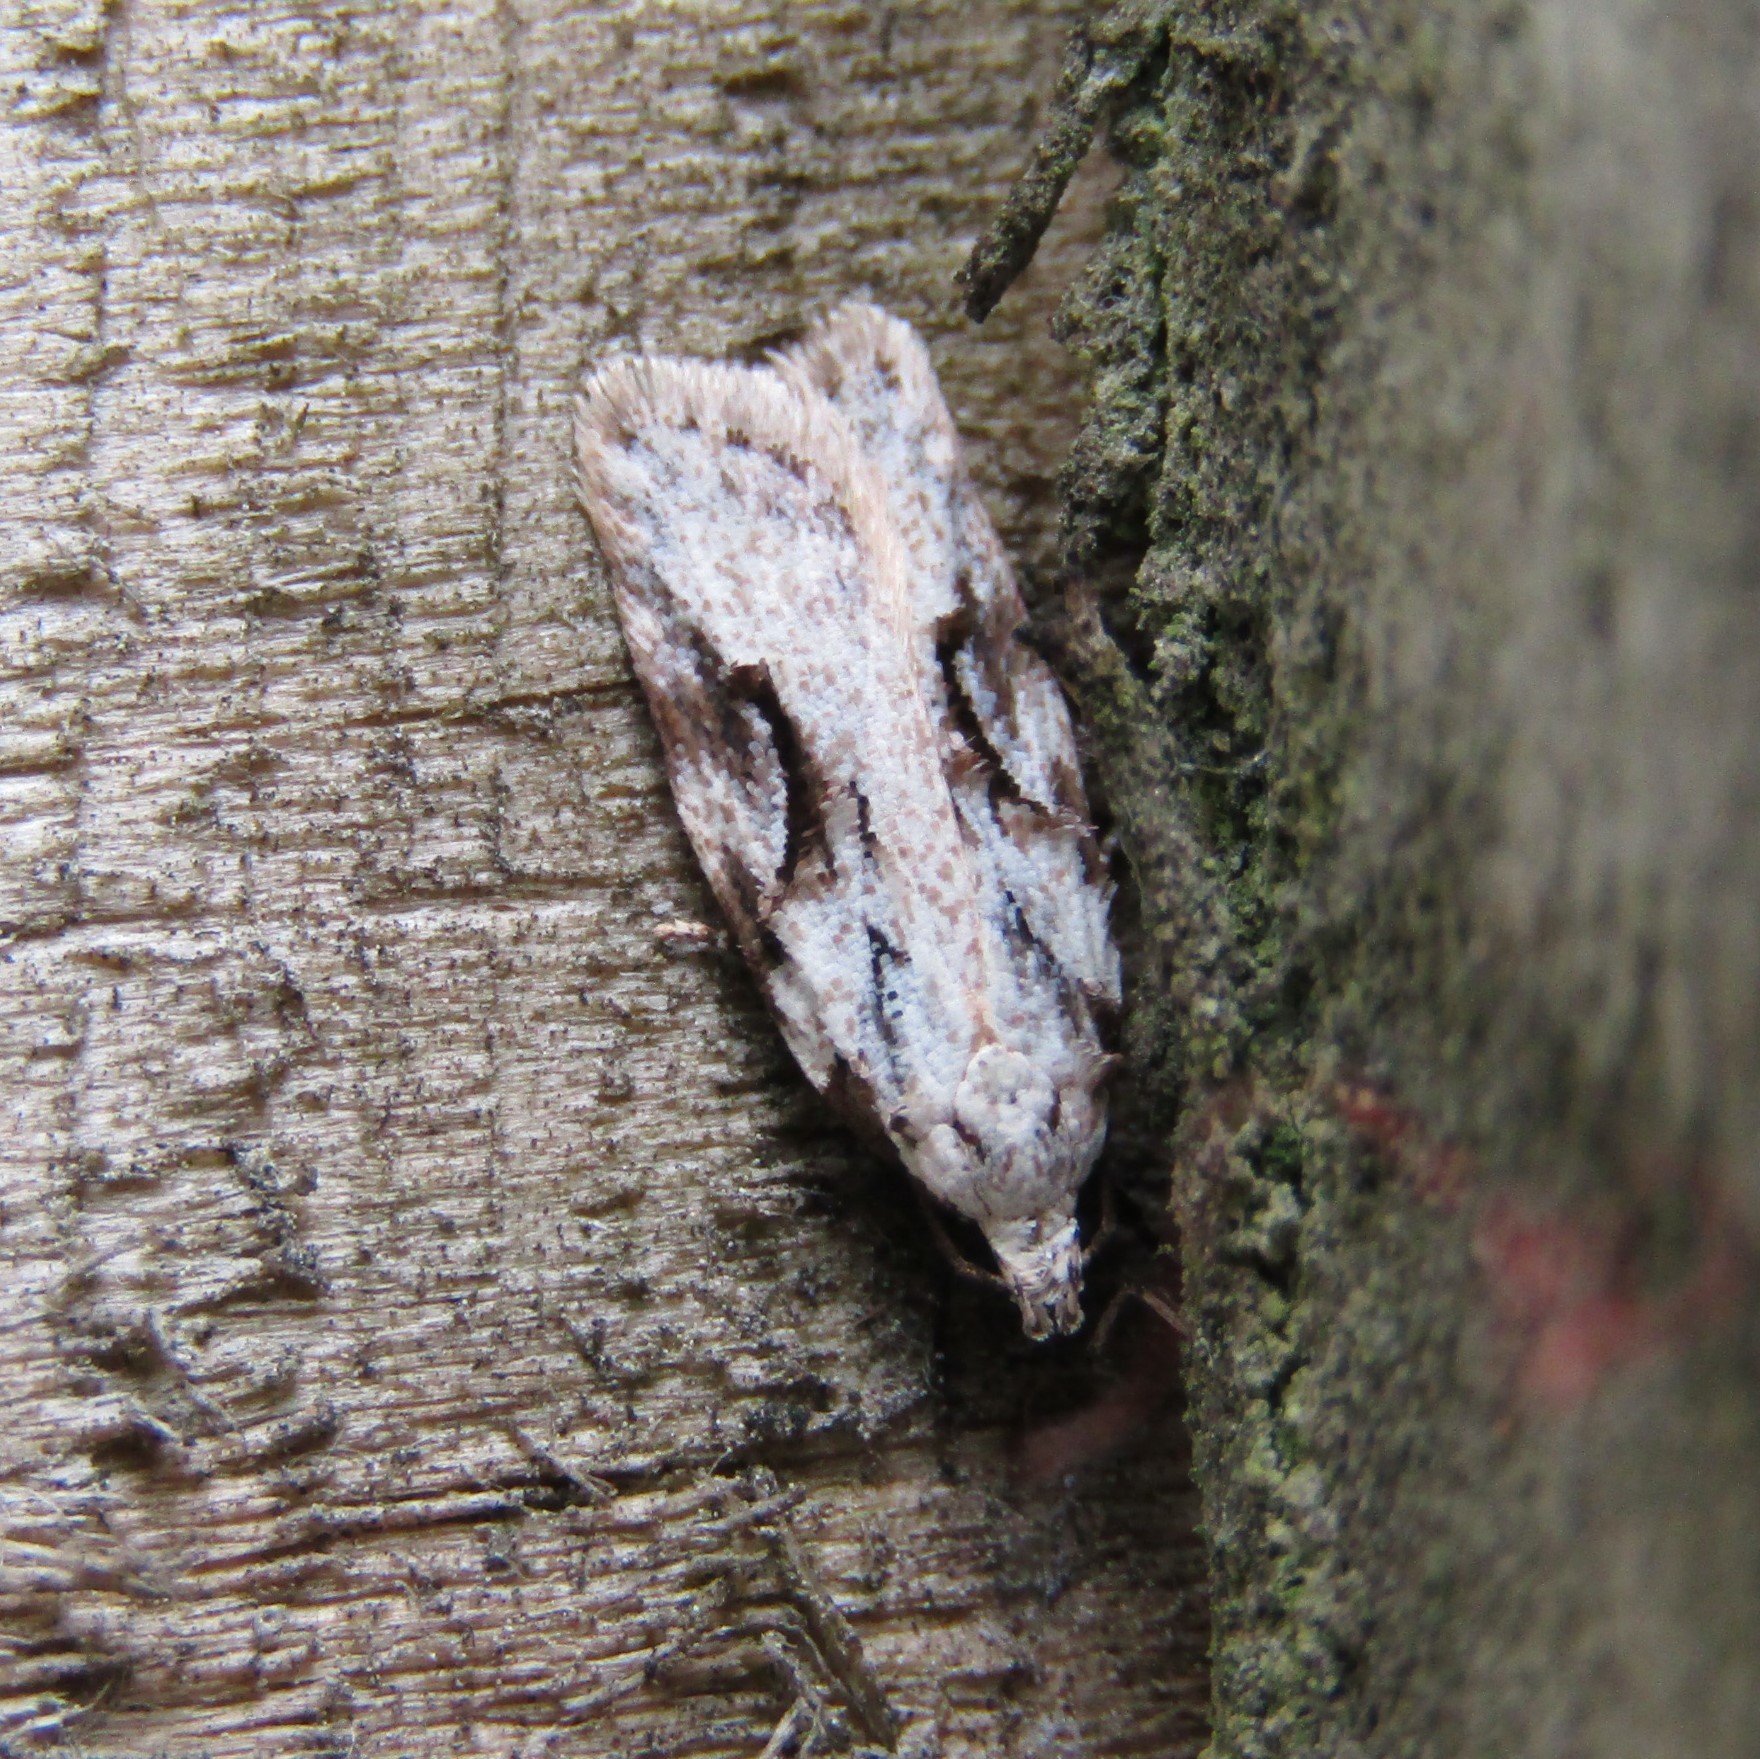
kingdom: Animalia
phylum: Arthropoda
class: Insecta
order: Lepidoptera
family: Oecophoridae
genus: Izatha
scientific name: Izatha mesoschista
